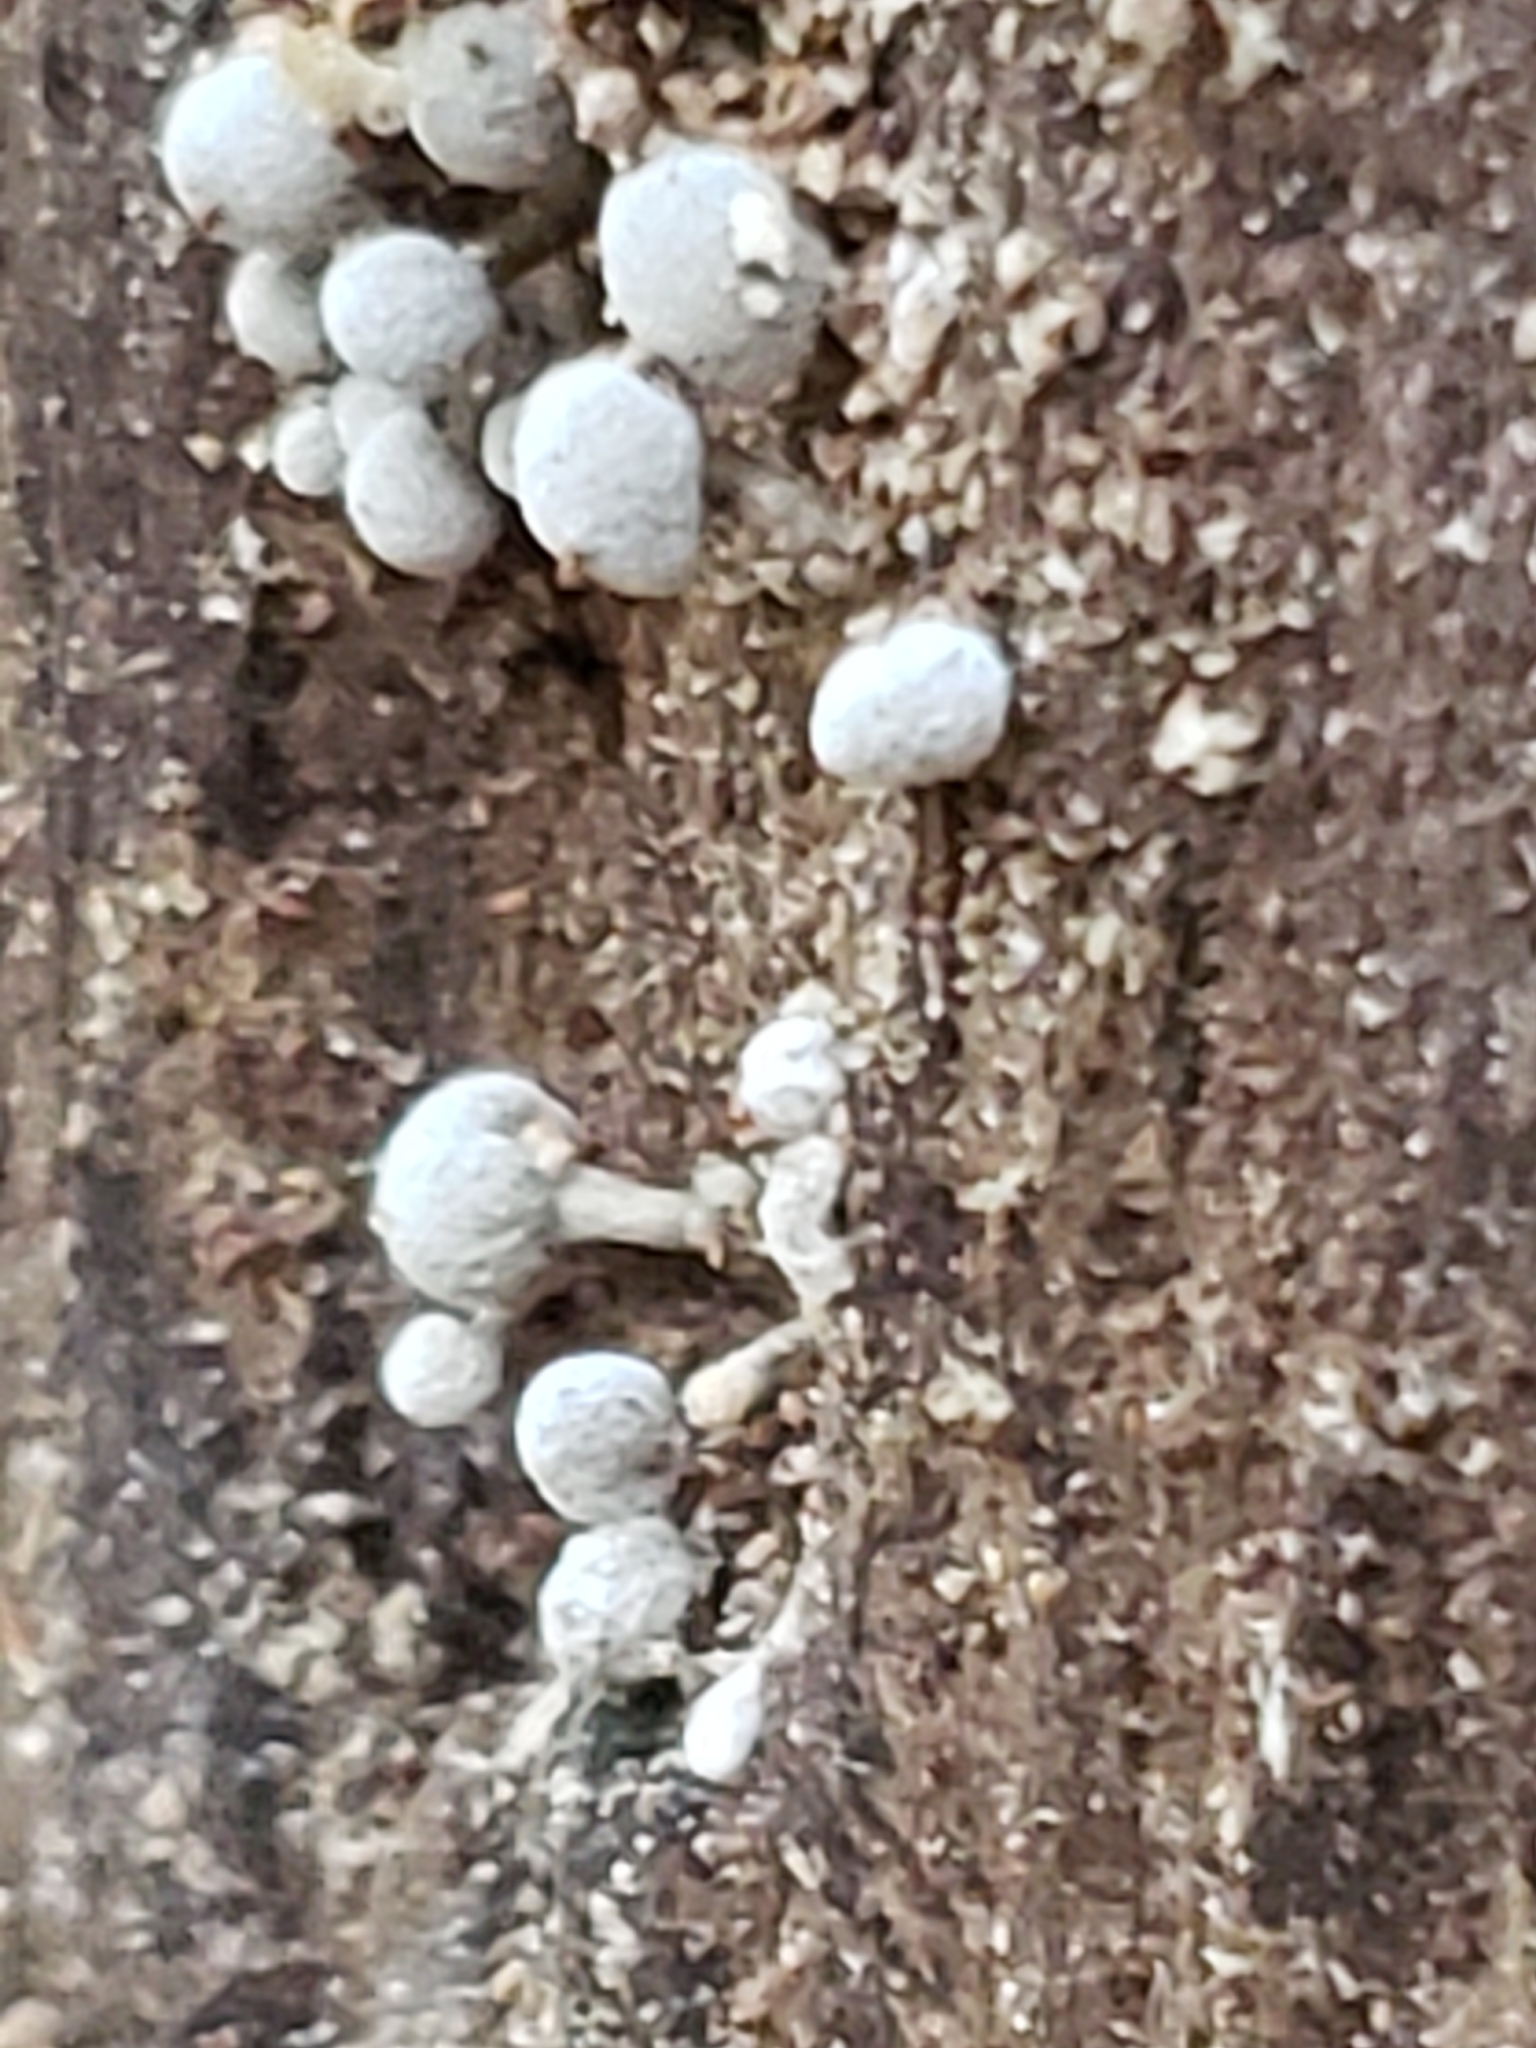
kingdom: Fungi
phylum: Basidiomycota
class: Atractiellomycetes
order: Atractiellales
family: Phleogenaceae
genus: Phleogena
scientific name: Phleogena faginea
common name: Fenugreek stalkball
